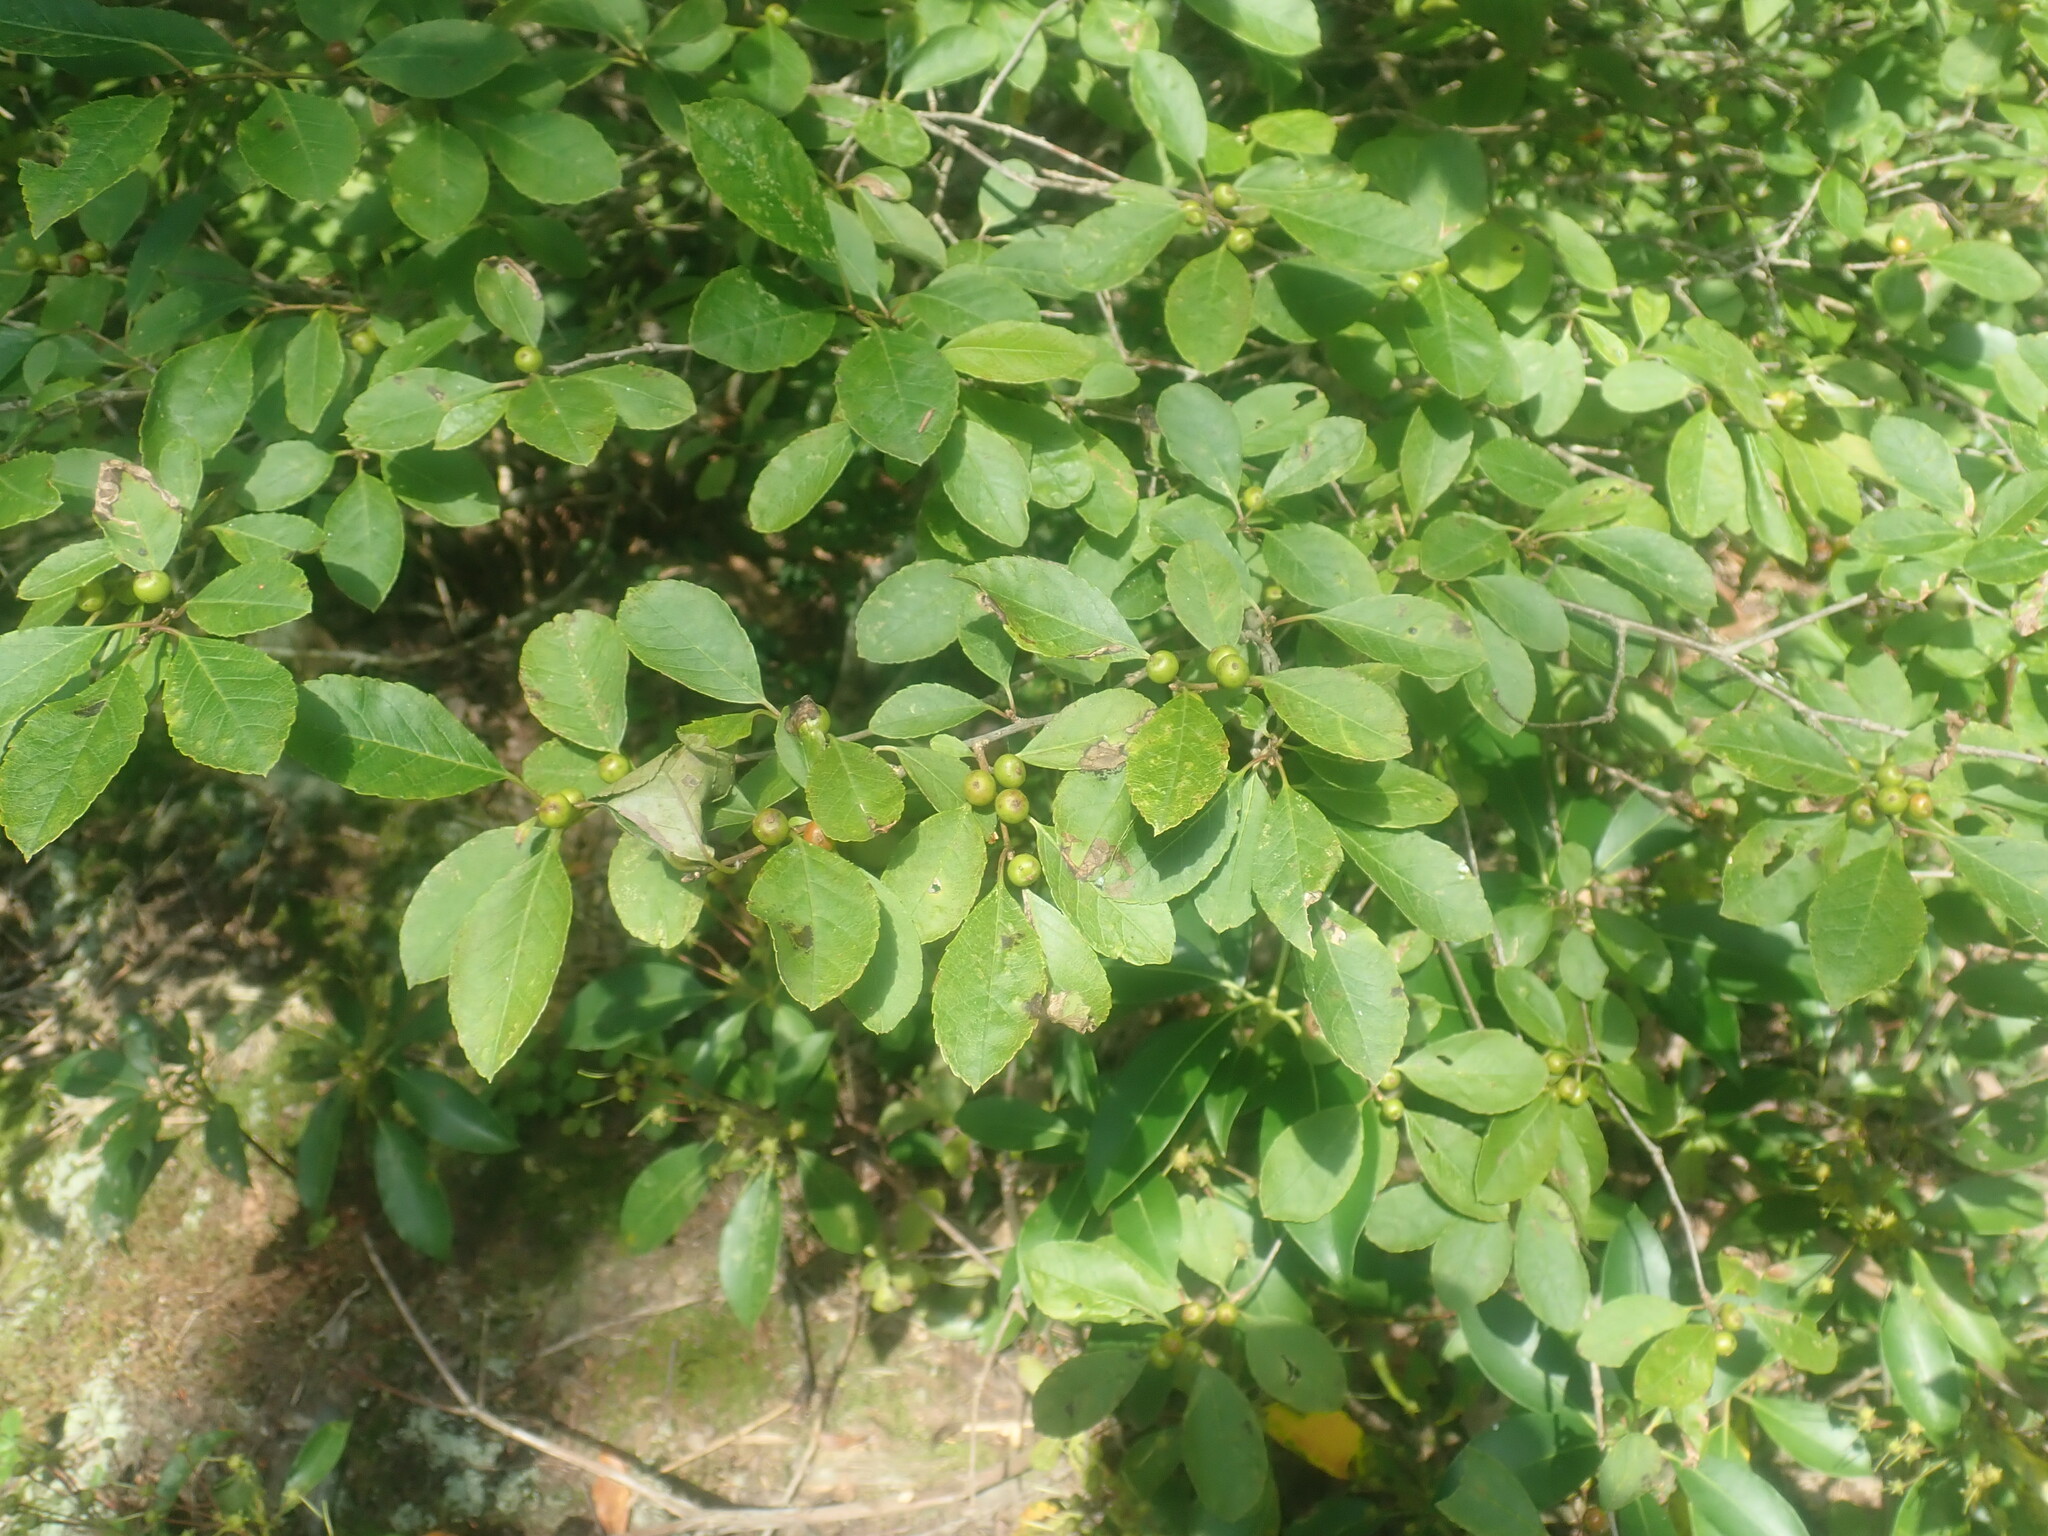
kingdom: Plantae
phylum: Tracheophyta
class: Magnoliopsida
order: Aquifoliales
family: Aquifoliaceae
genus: Ilex
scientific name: Ilex verticillata
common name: Virginia winterberry
